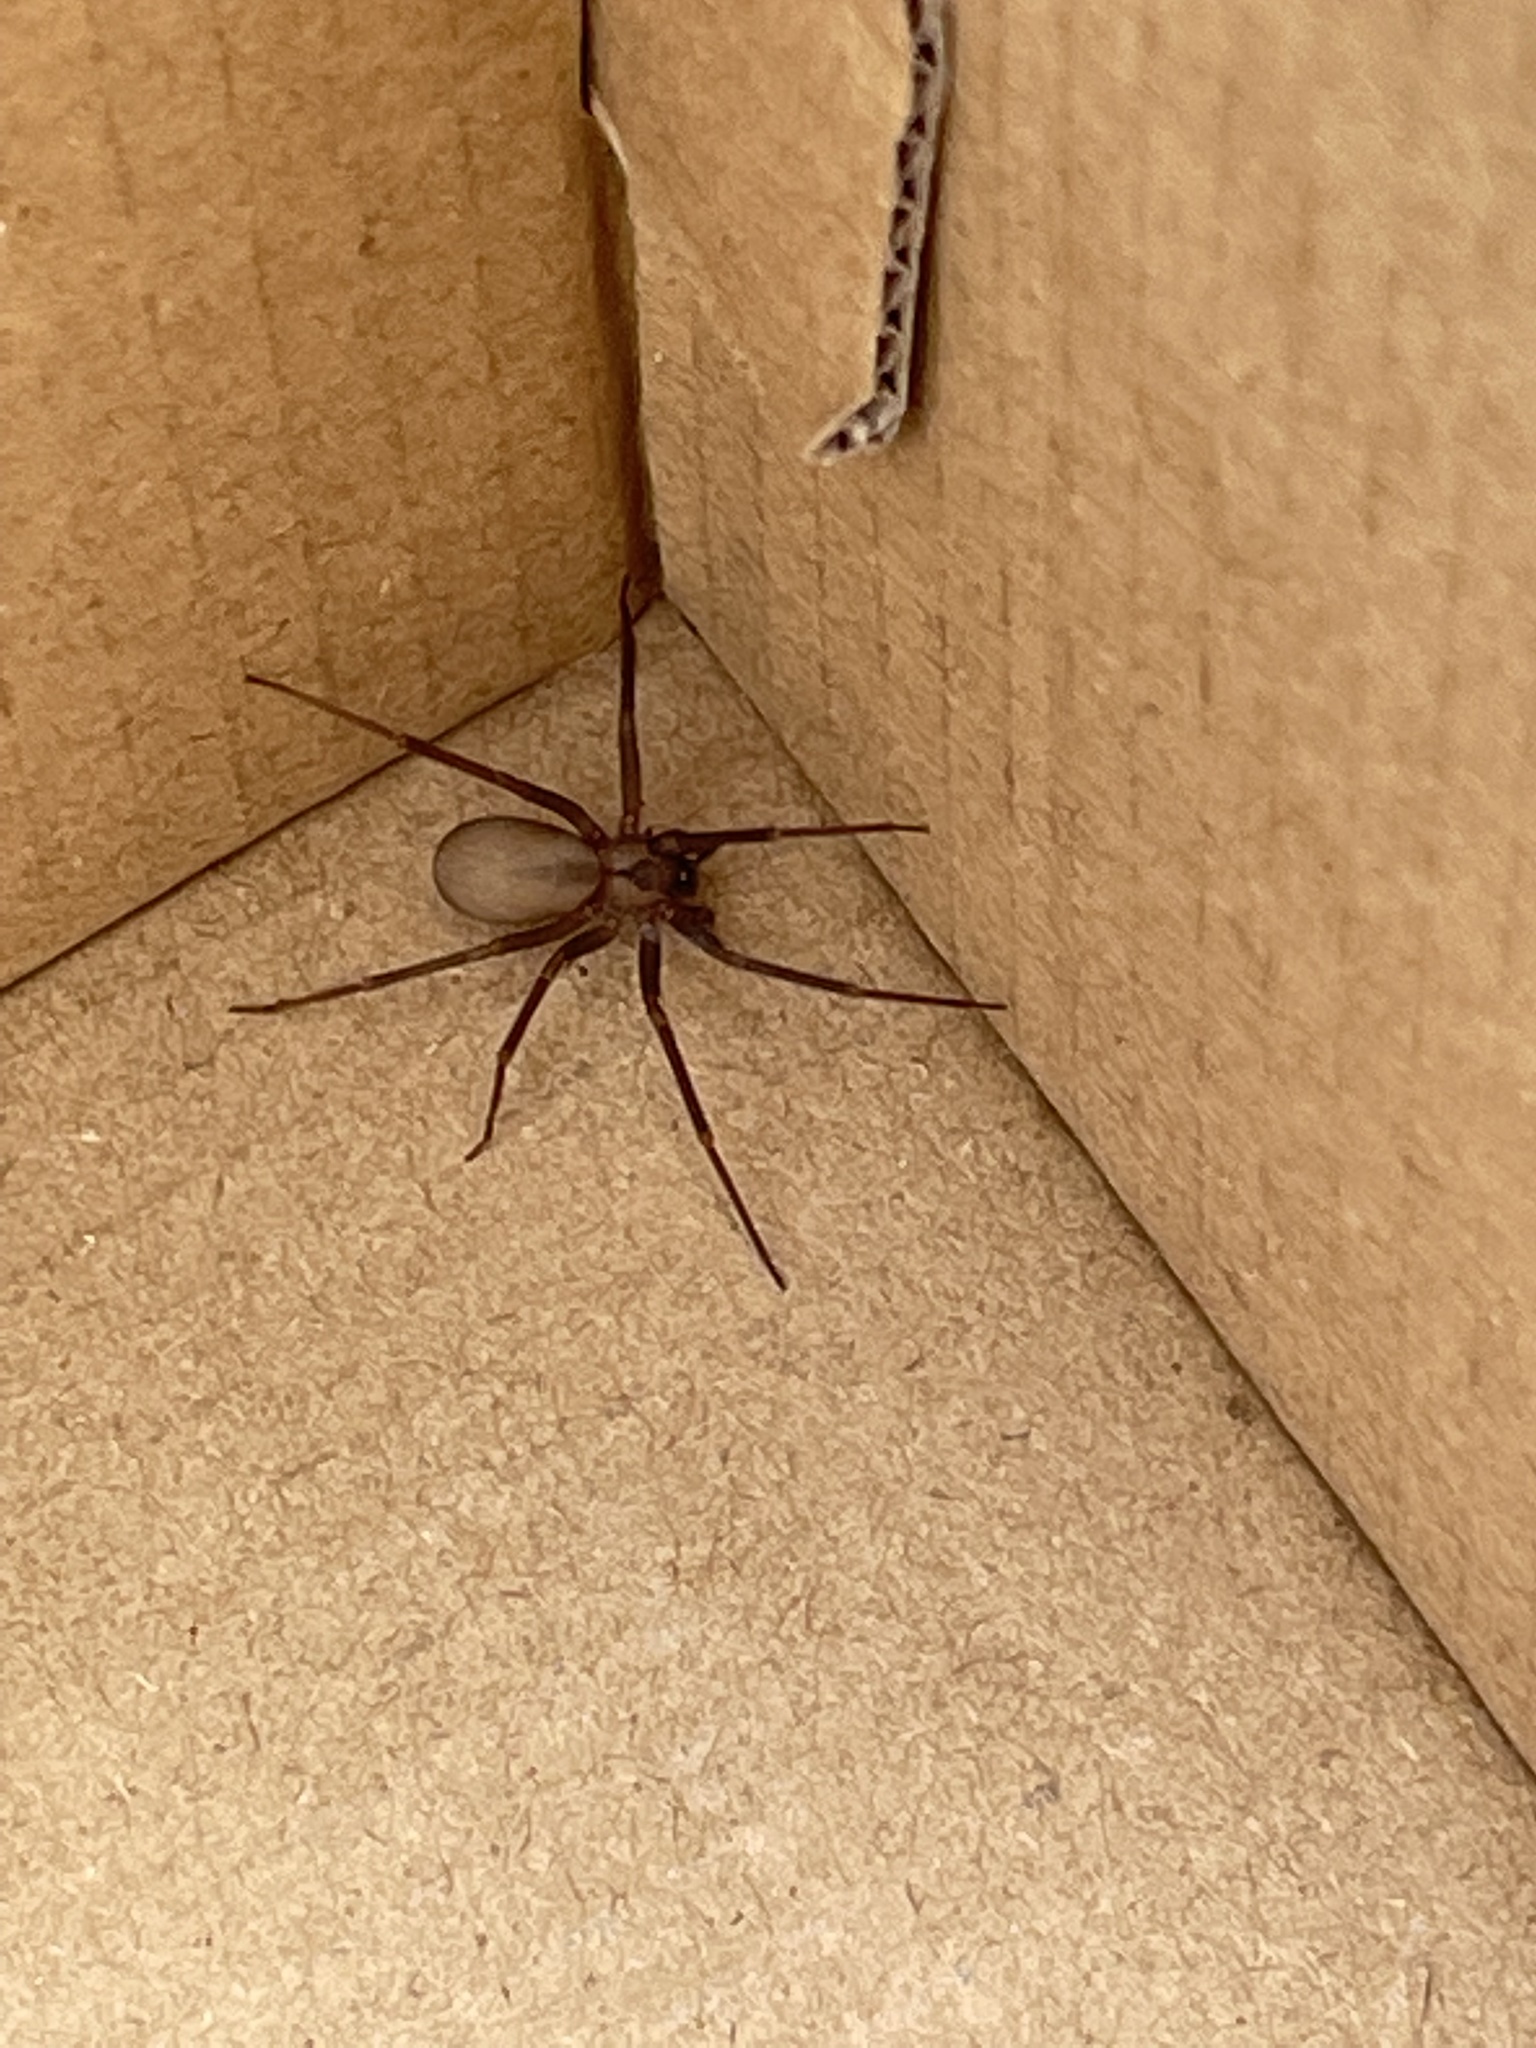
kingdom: Animalia
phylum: Arthropoda
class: Arachnida
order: Araneae
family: Sicariidae
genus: Loxosceles
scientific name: Loxosceles reclusa
